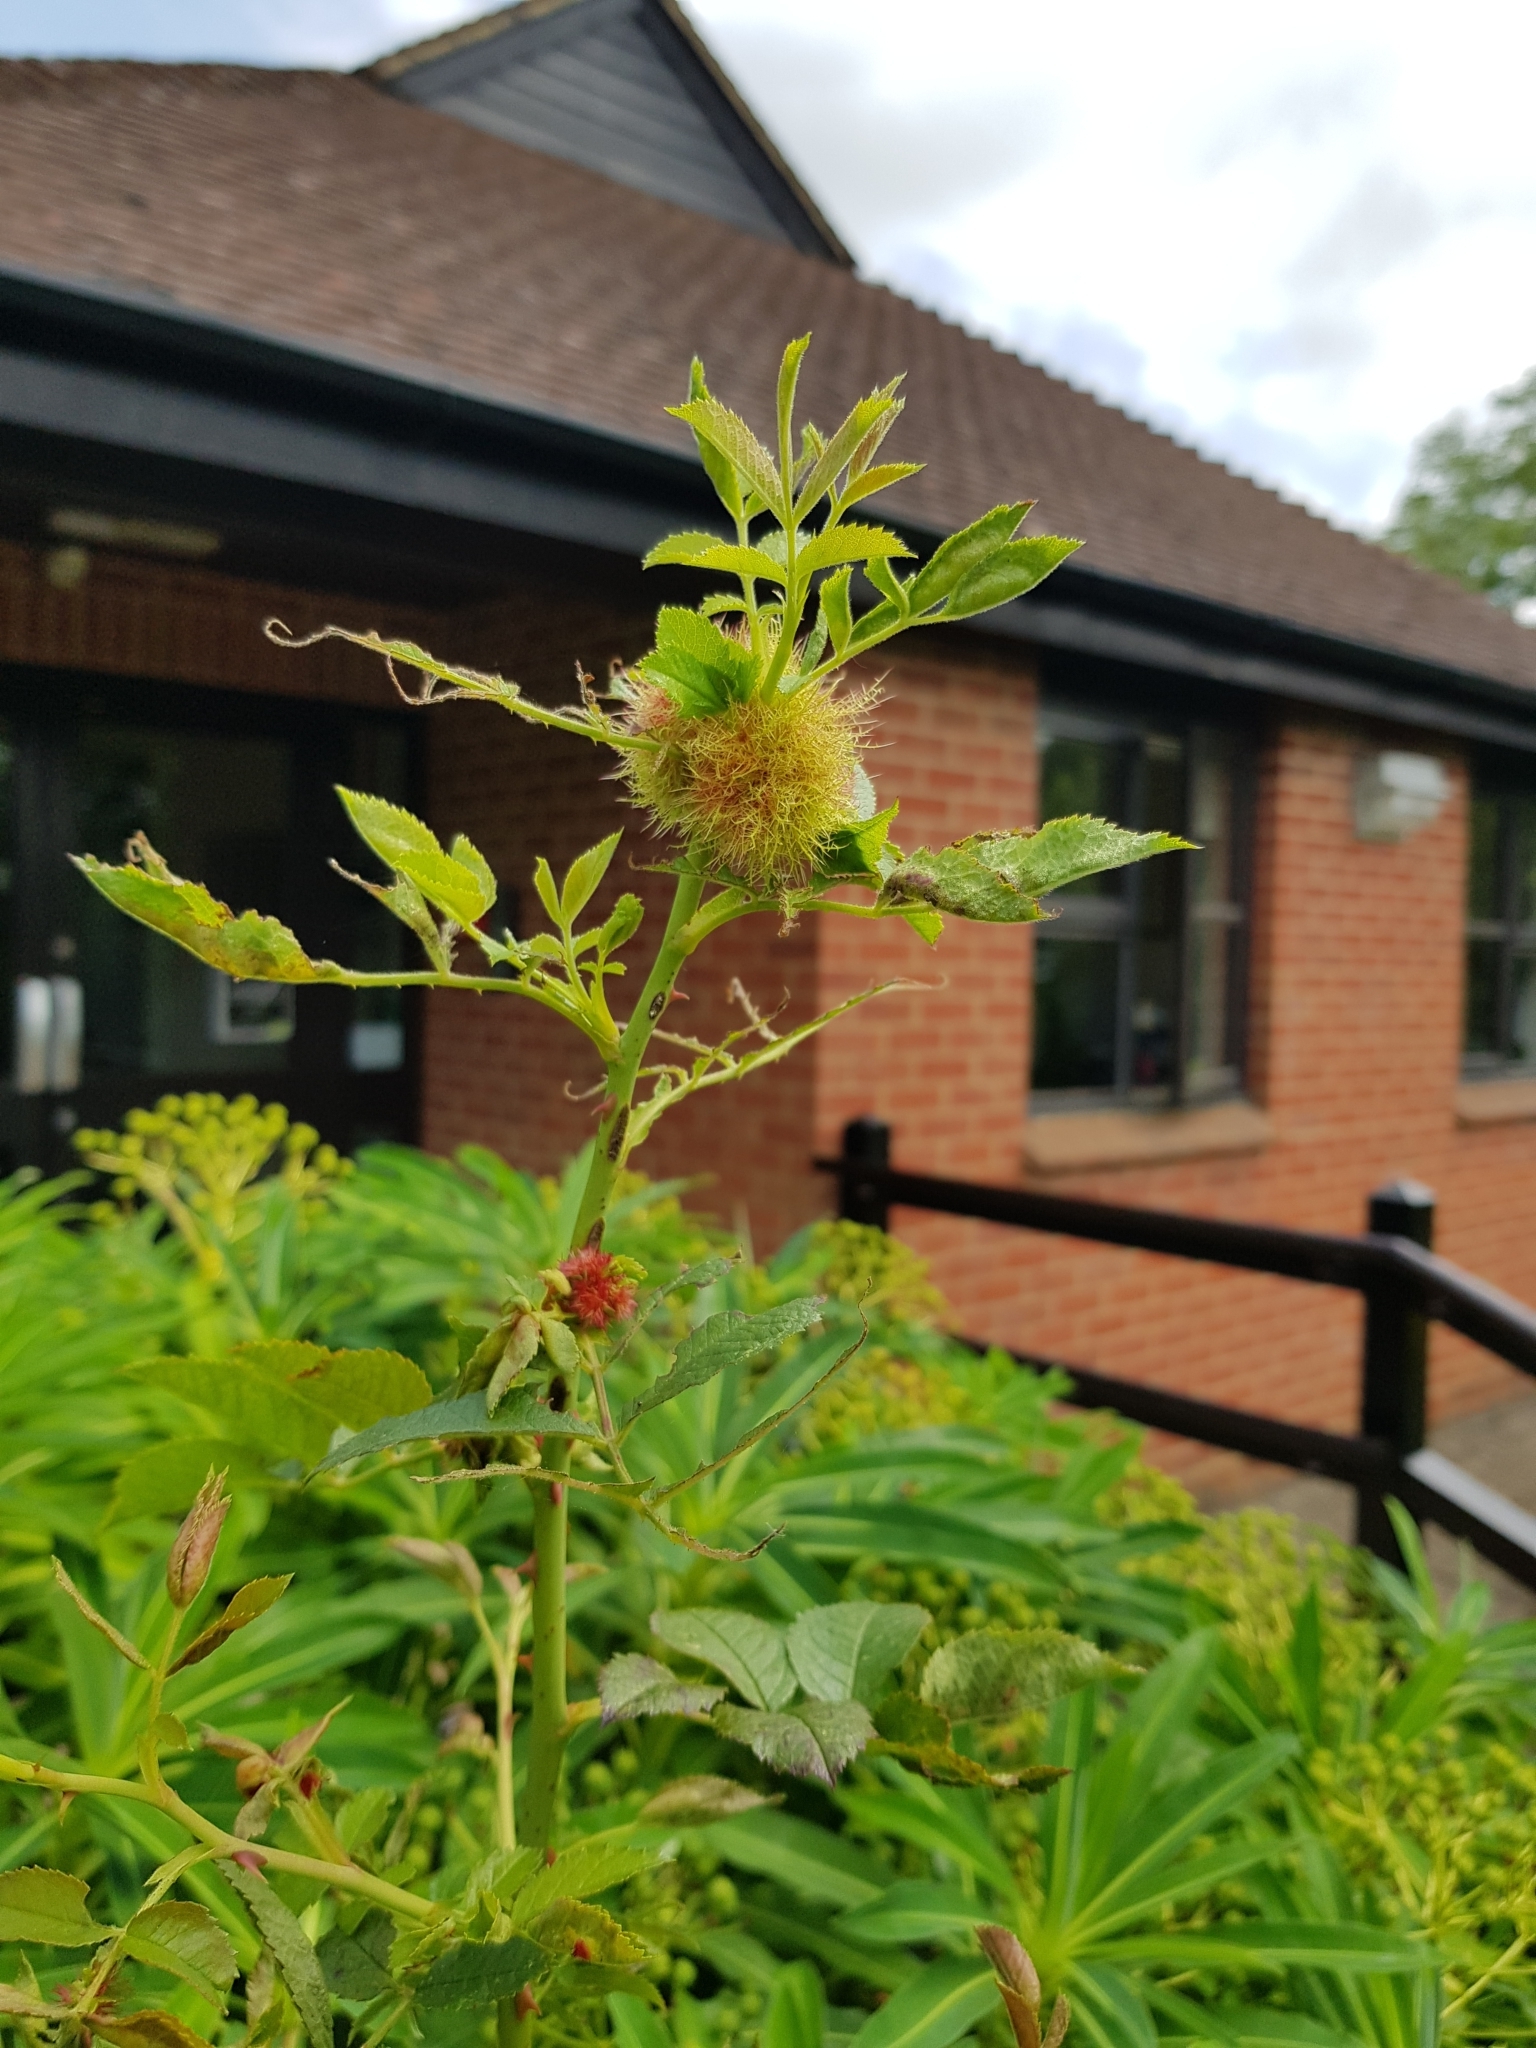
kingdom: Animalia
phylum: Arthropoda
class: Insecta
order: Hymenoptera
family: Cynipidae
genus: Diplolepis
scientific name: Diplolepis rosae
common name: Bedeguar gall
